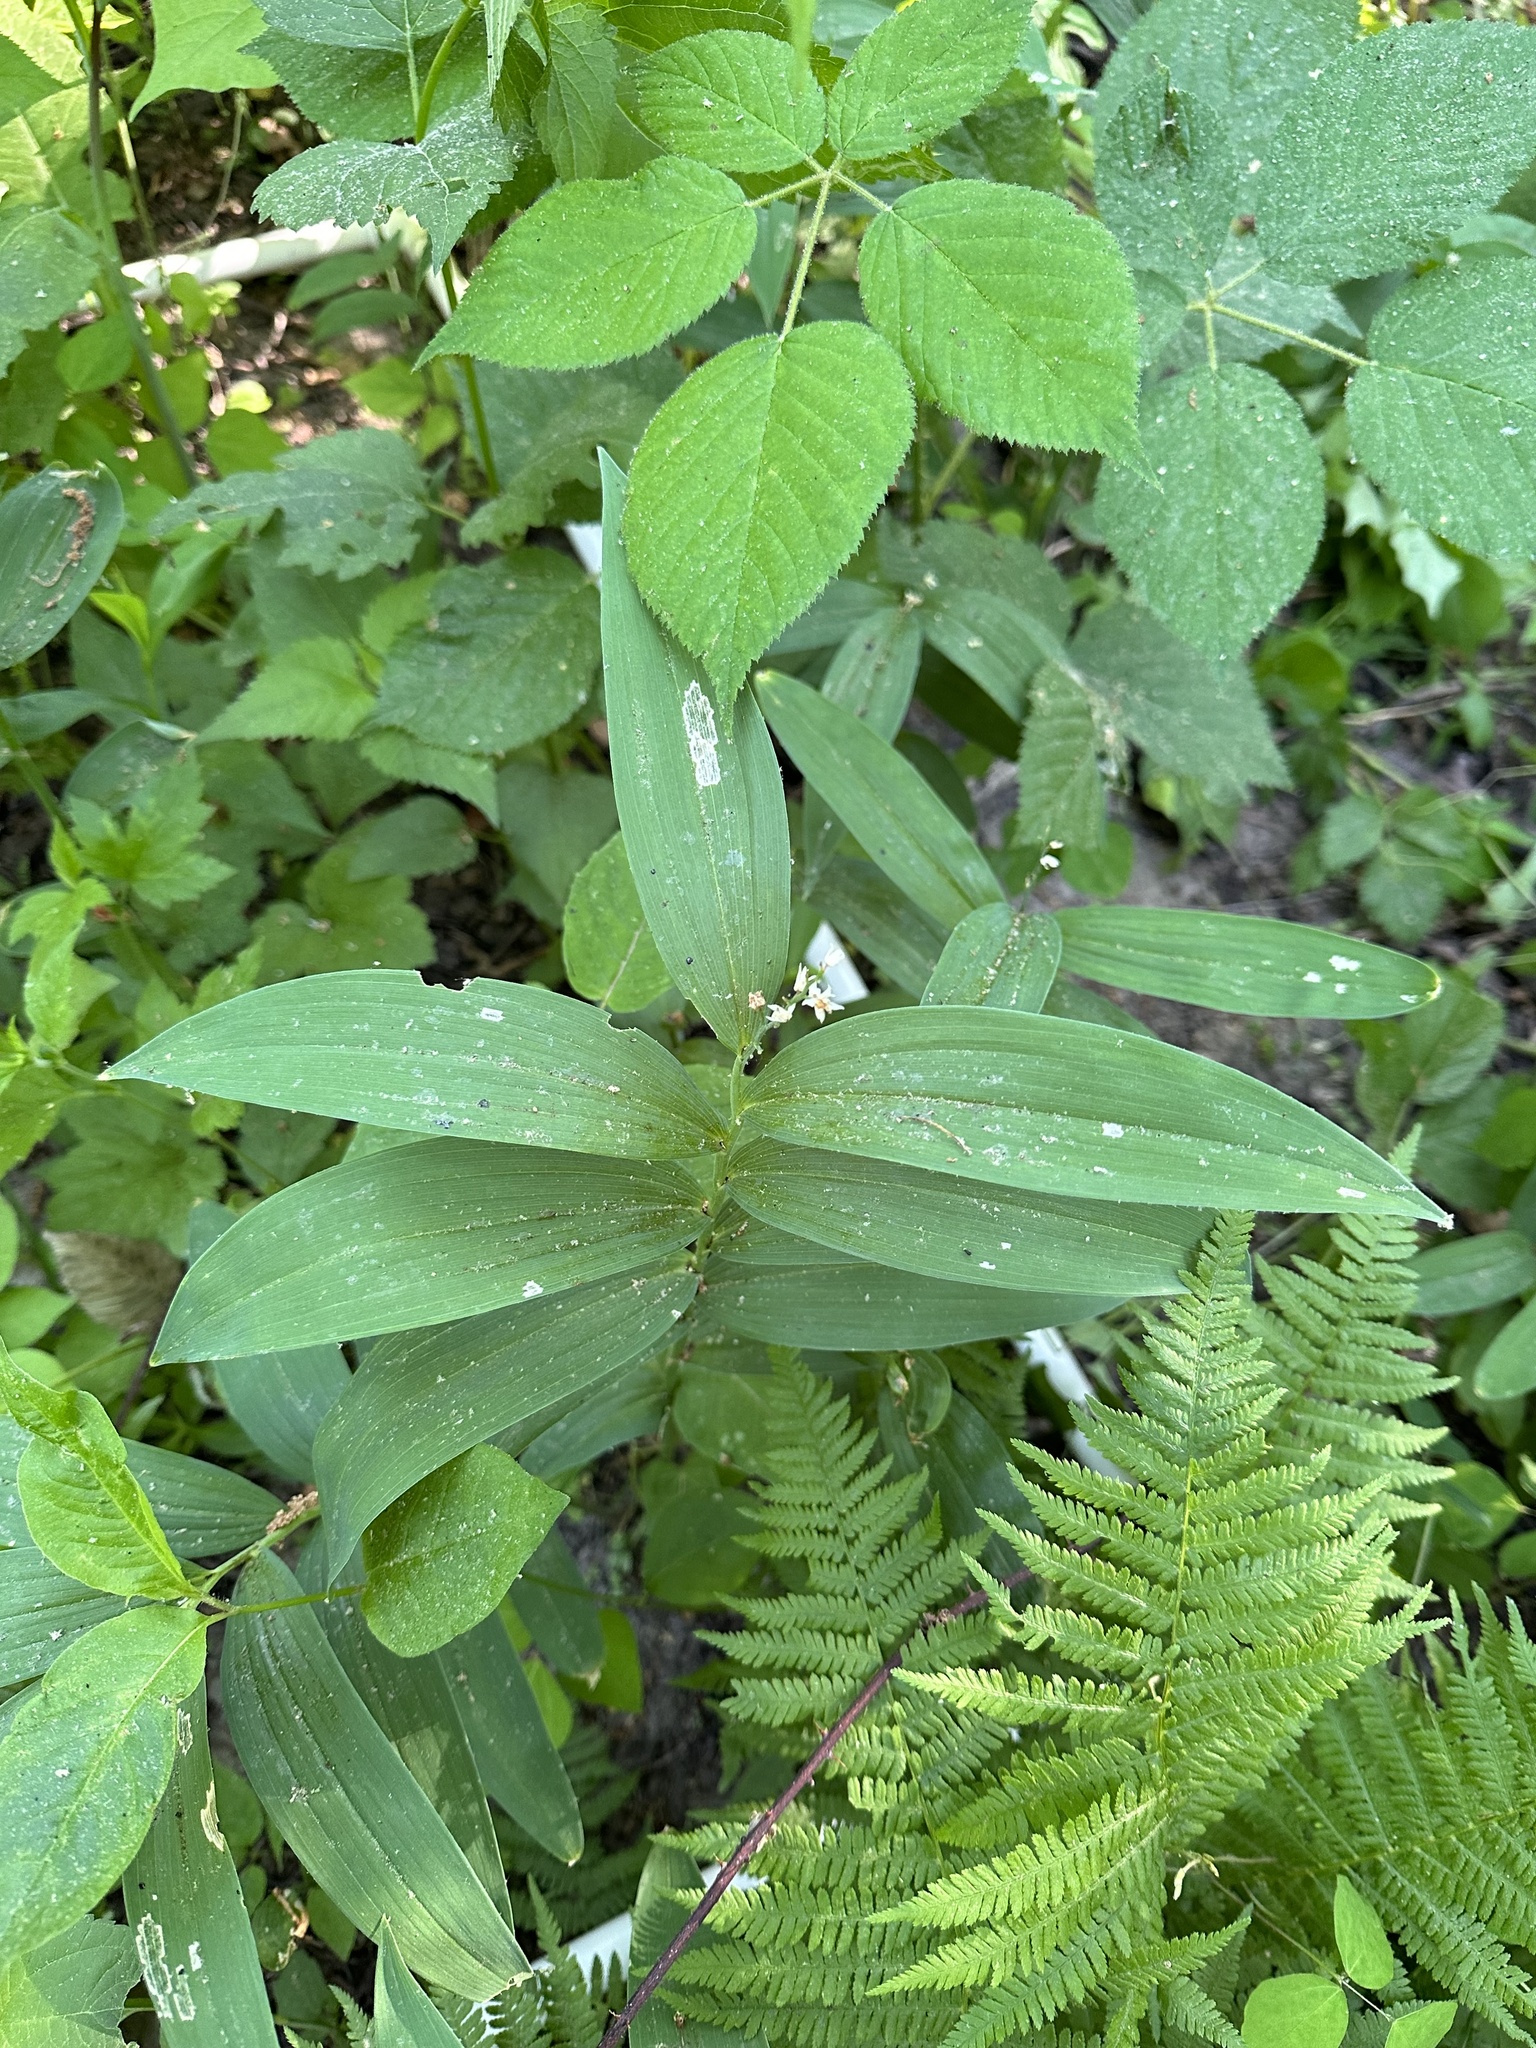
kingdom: Plantae
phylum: Tracheophyta
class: Liliopsida
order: Asparagales
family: Asparagaceae
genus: Maianthemum
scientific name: Maianthemum stellatum
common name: Little false solomon's seal
